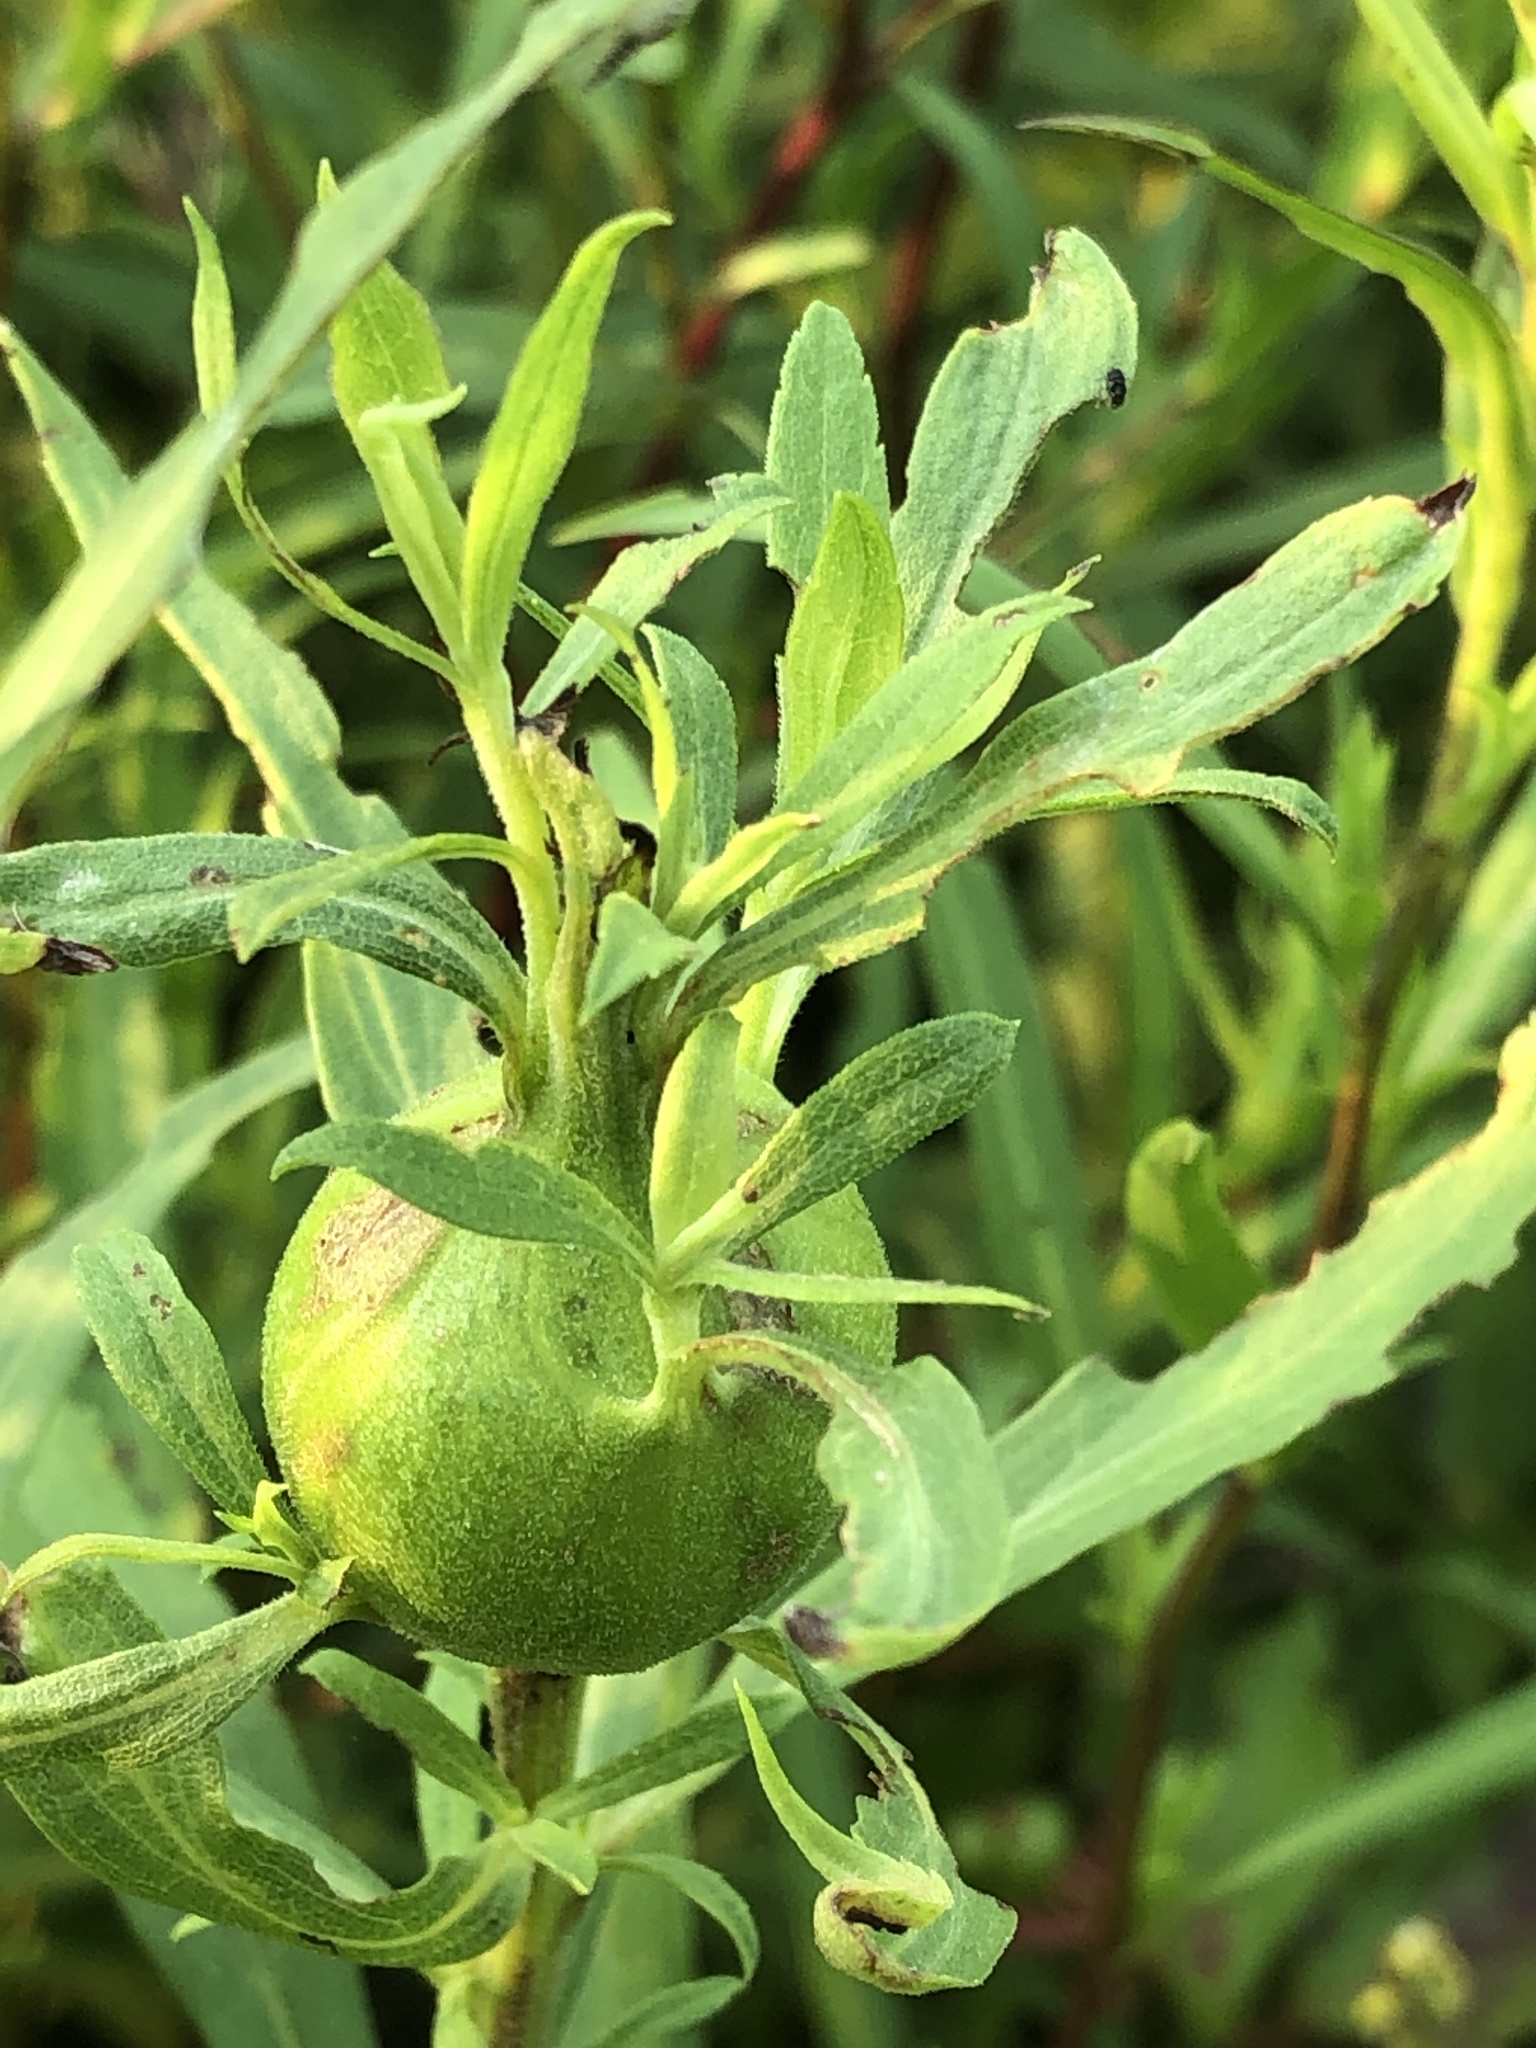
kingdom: Animalia
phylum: Arthropoda
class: Insecta
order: Diptera
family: Tephritidae
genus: Eurosta
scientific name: Eurosta solidaginis
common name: Goldenrod gall fly
